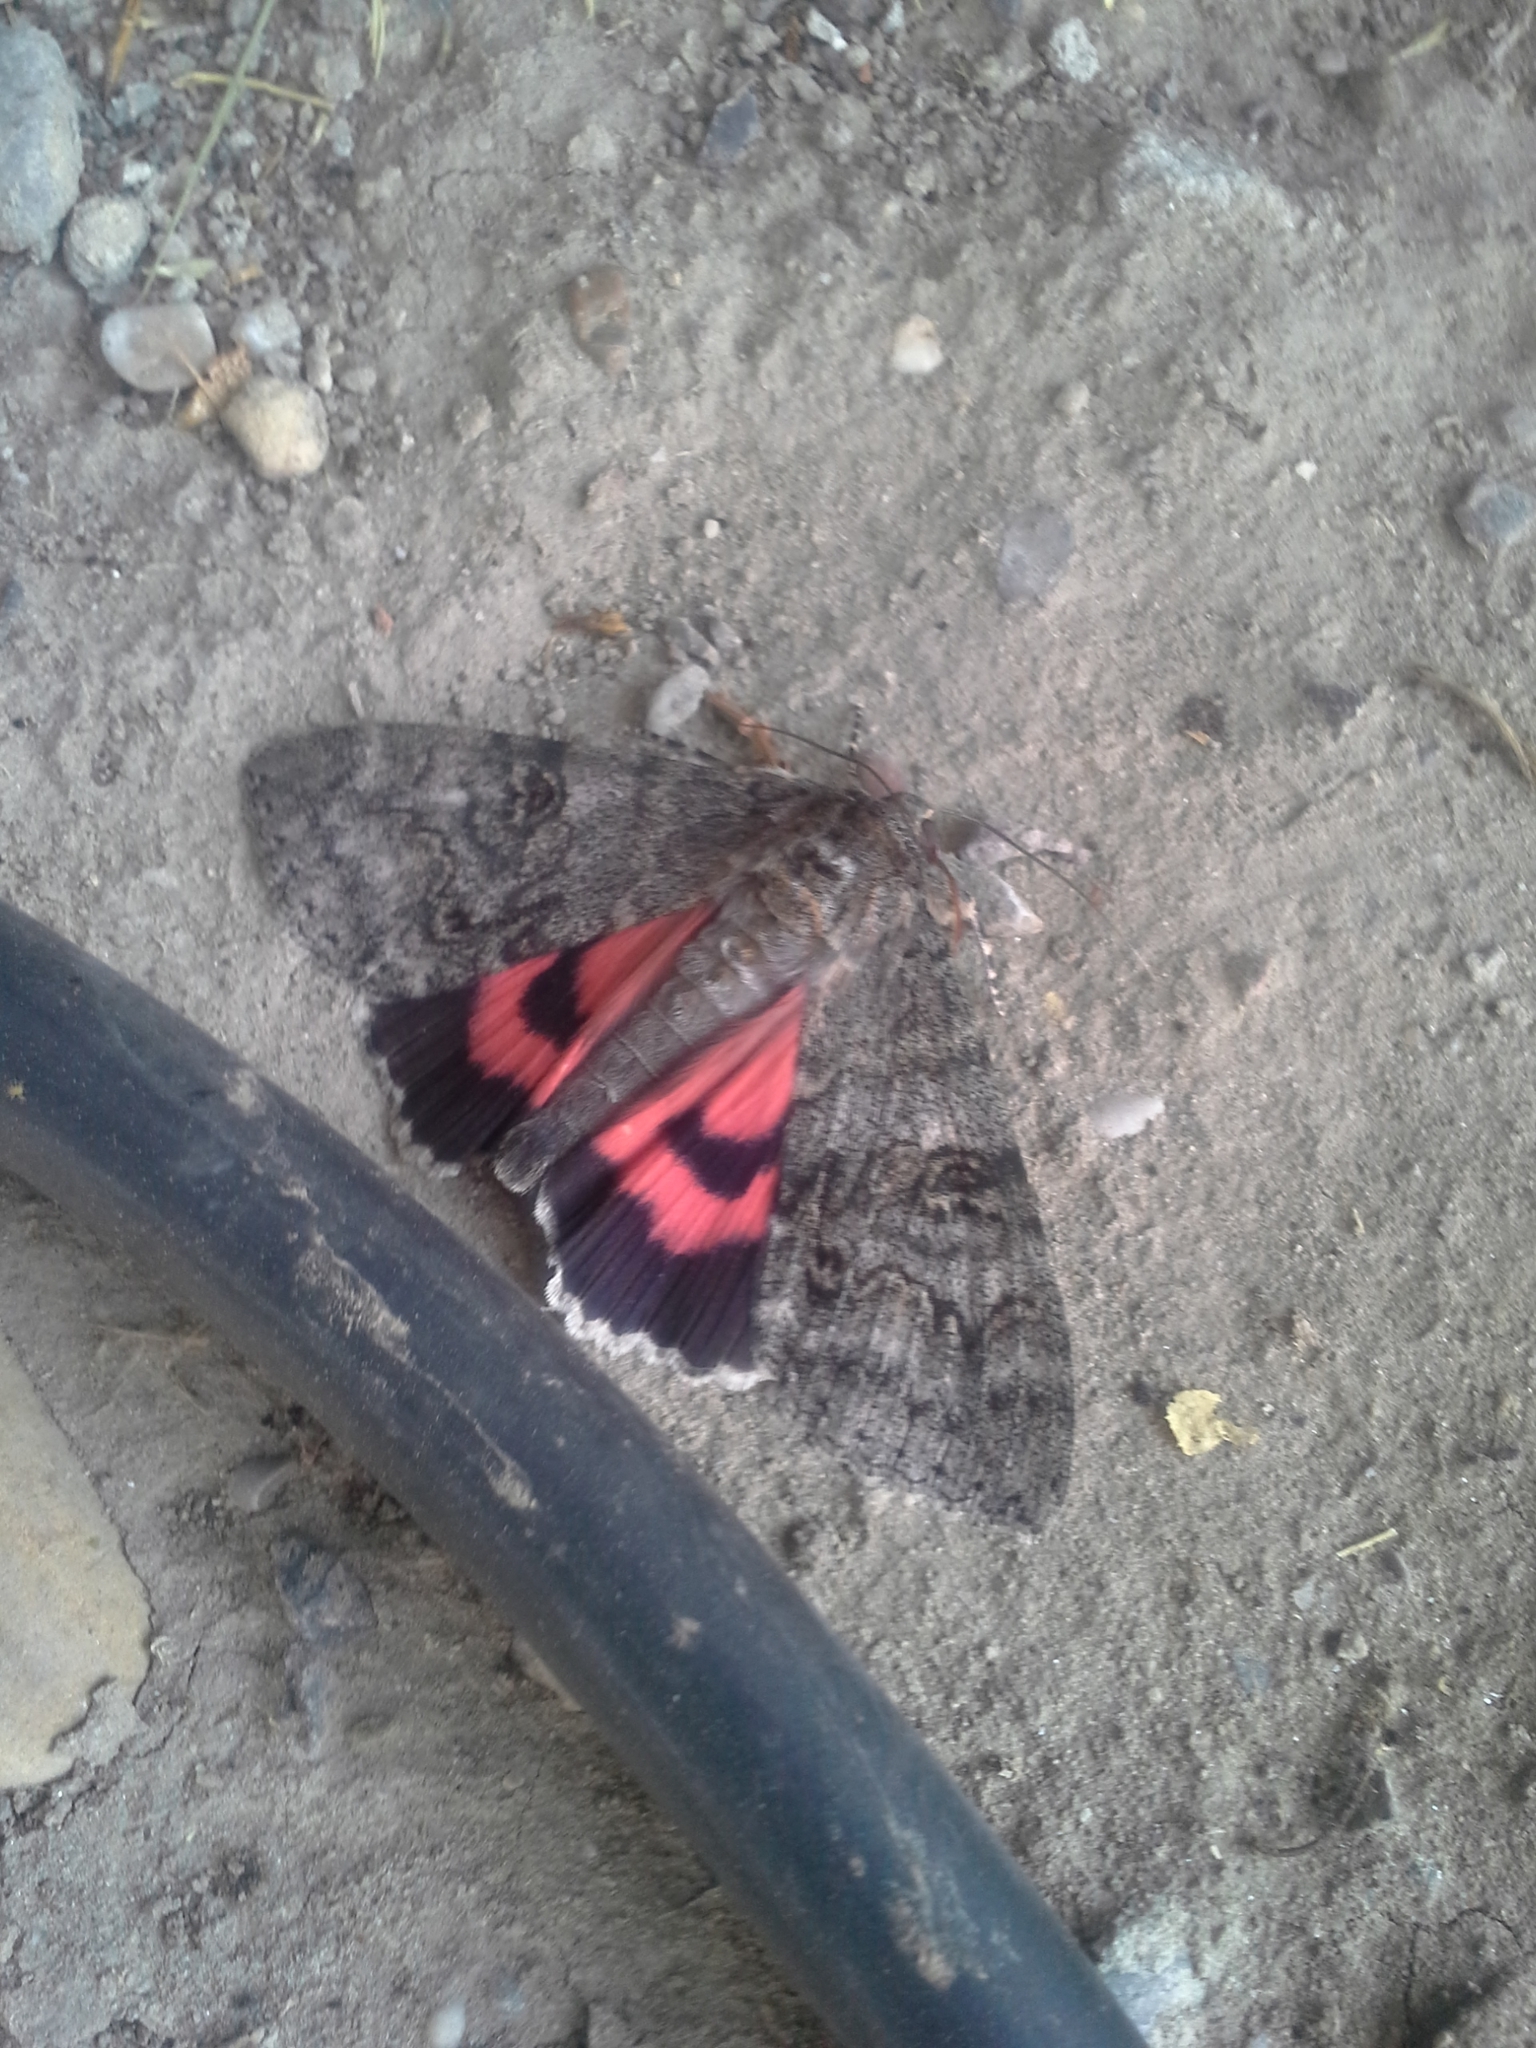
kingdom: Animalia
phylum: Arthropoda
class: Insecta
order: Lepidoptera
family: Erebidae
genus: Catocala
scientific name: Catocala nupta
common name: Red underwing
